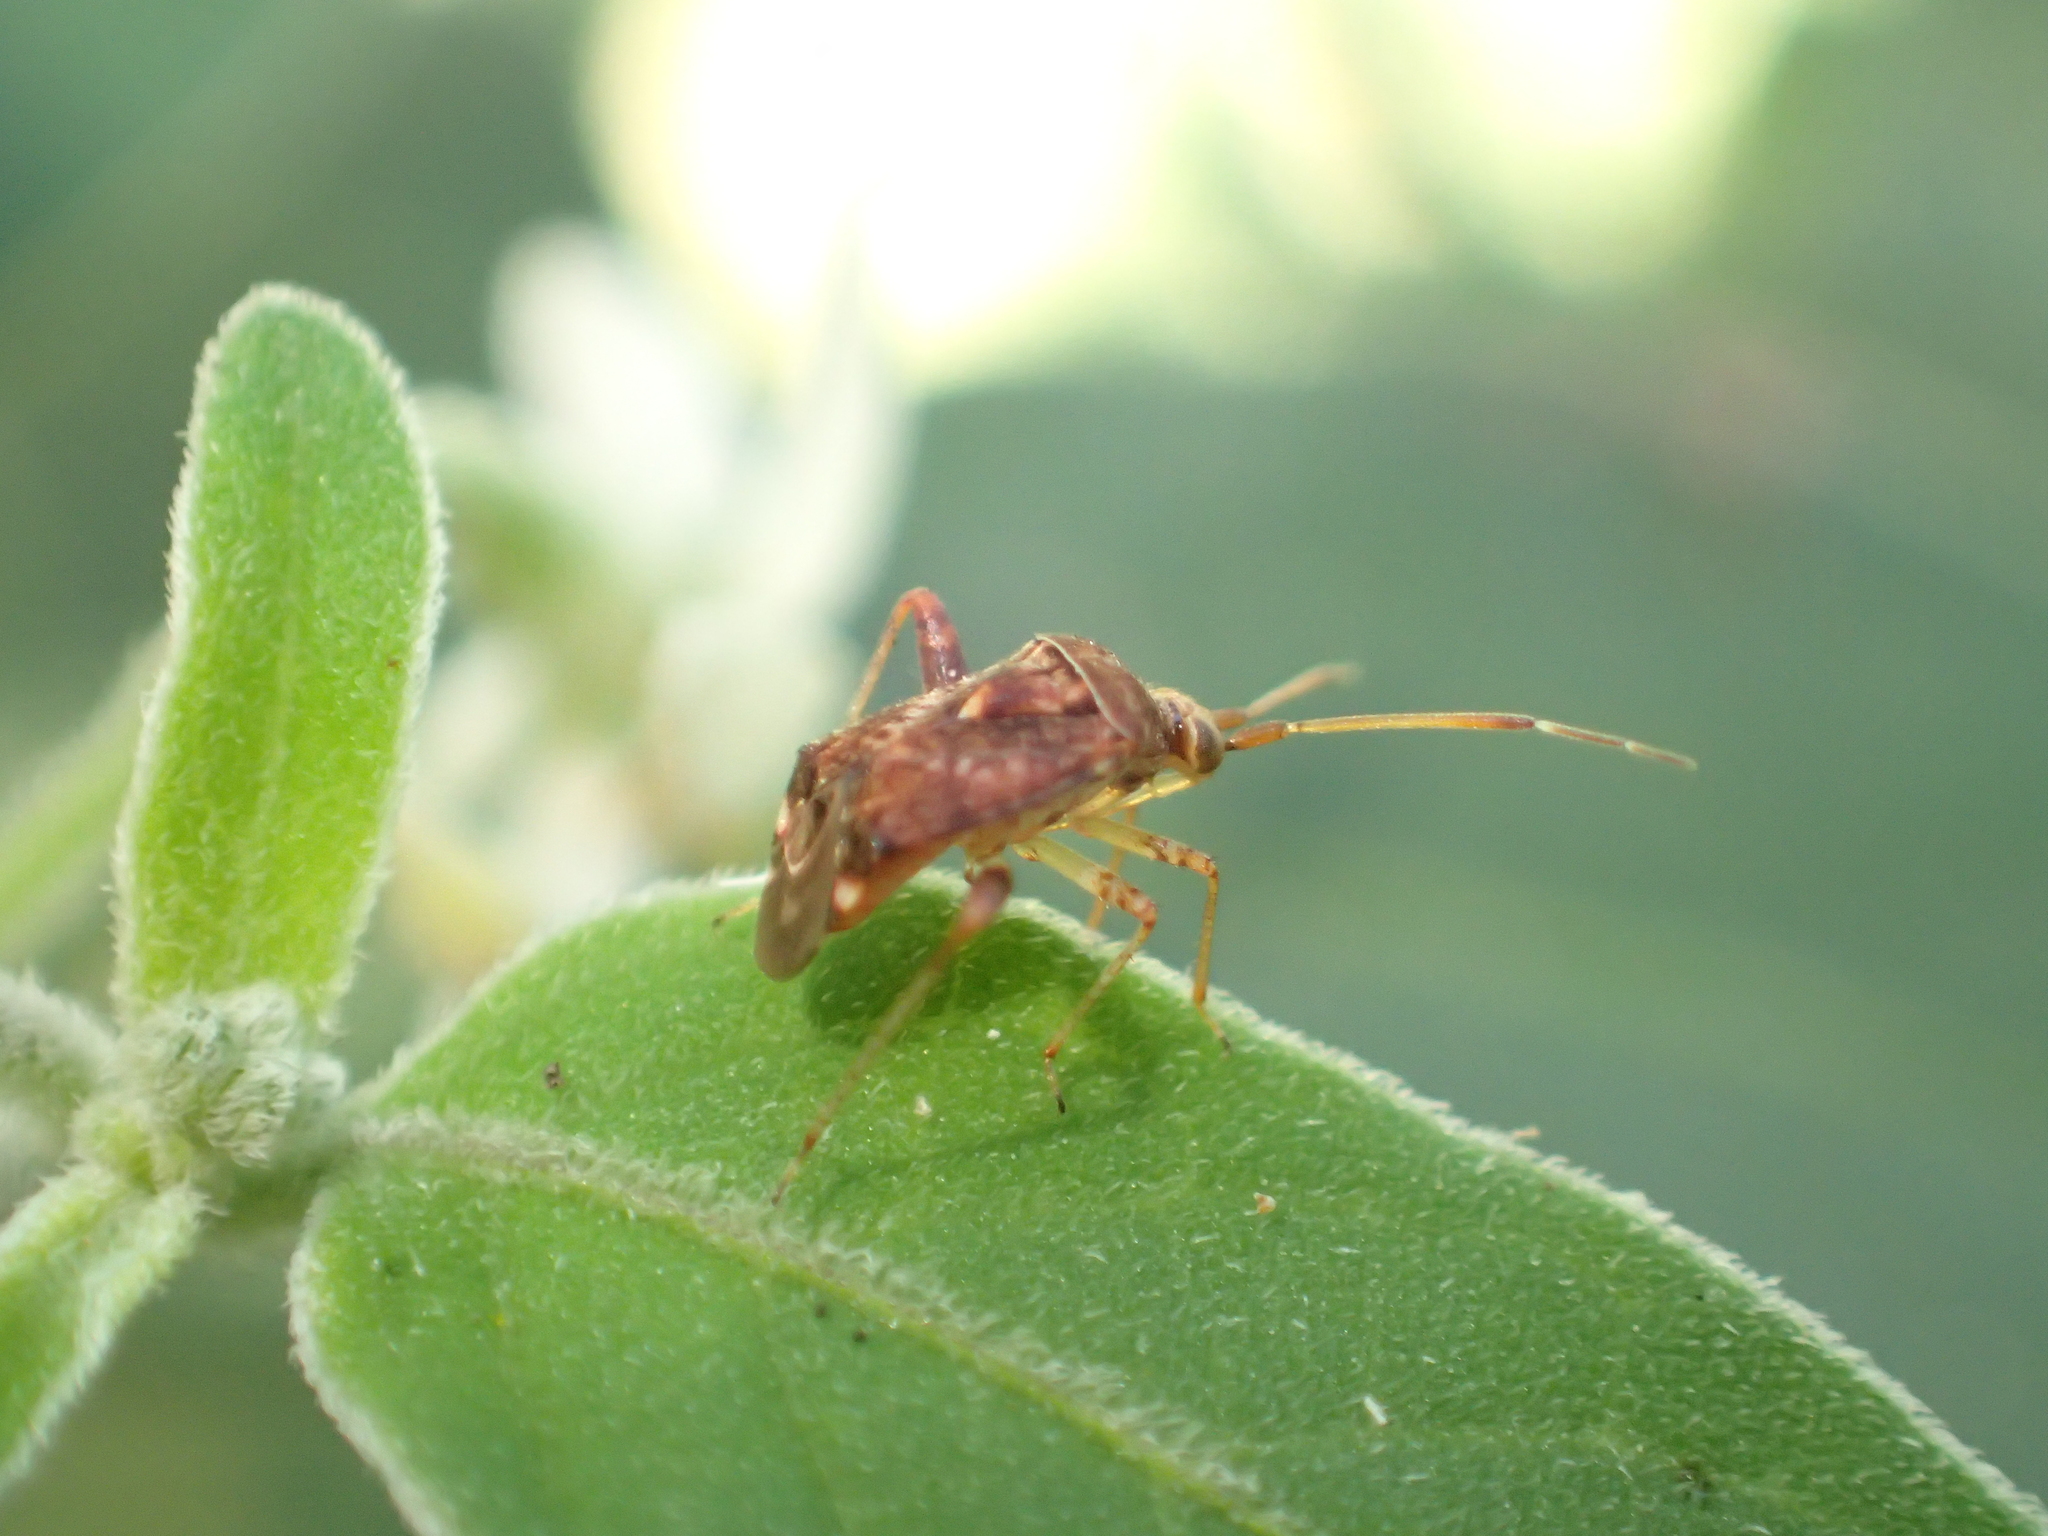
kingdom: Animalia
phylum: Arthropoda
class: Insecta
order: Hemiptera
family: Miridae
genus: Sidnia
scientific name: Sidnia kinbergi
